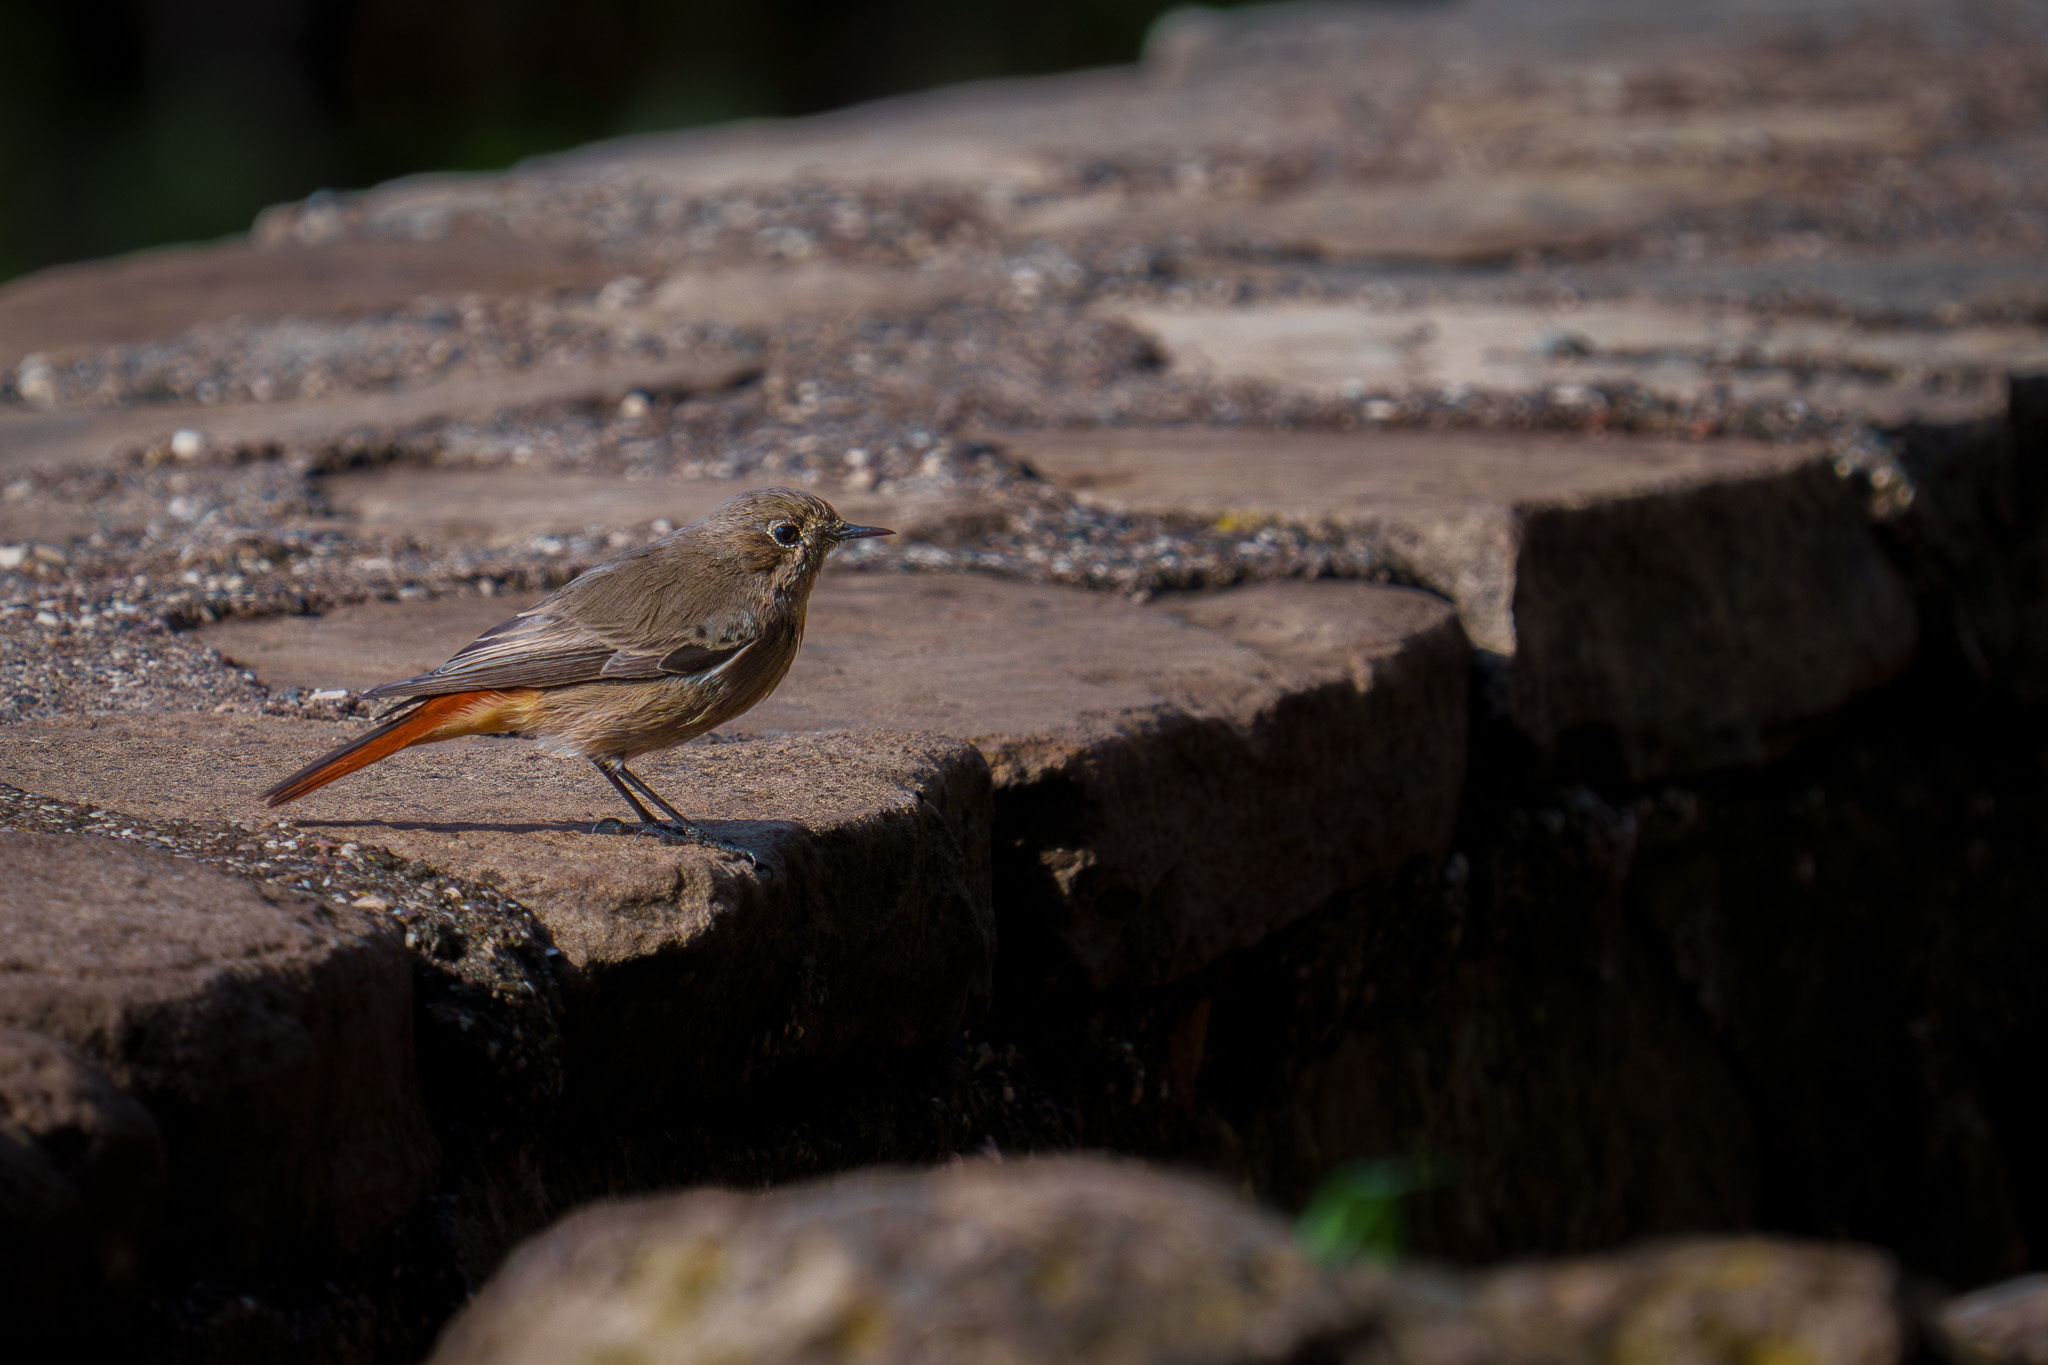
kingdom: Animalia
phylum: Chordata
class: Aves
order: Passeriformes
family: Muscicapidae
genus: Phoenicurus
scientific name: Phoenicurus ochruros
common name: Black redstart
